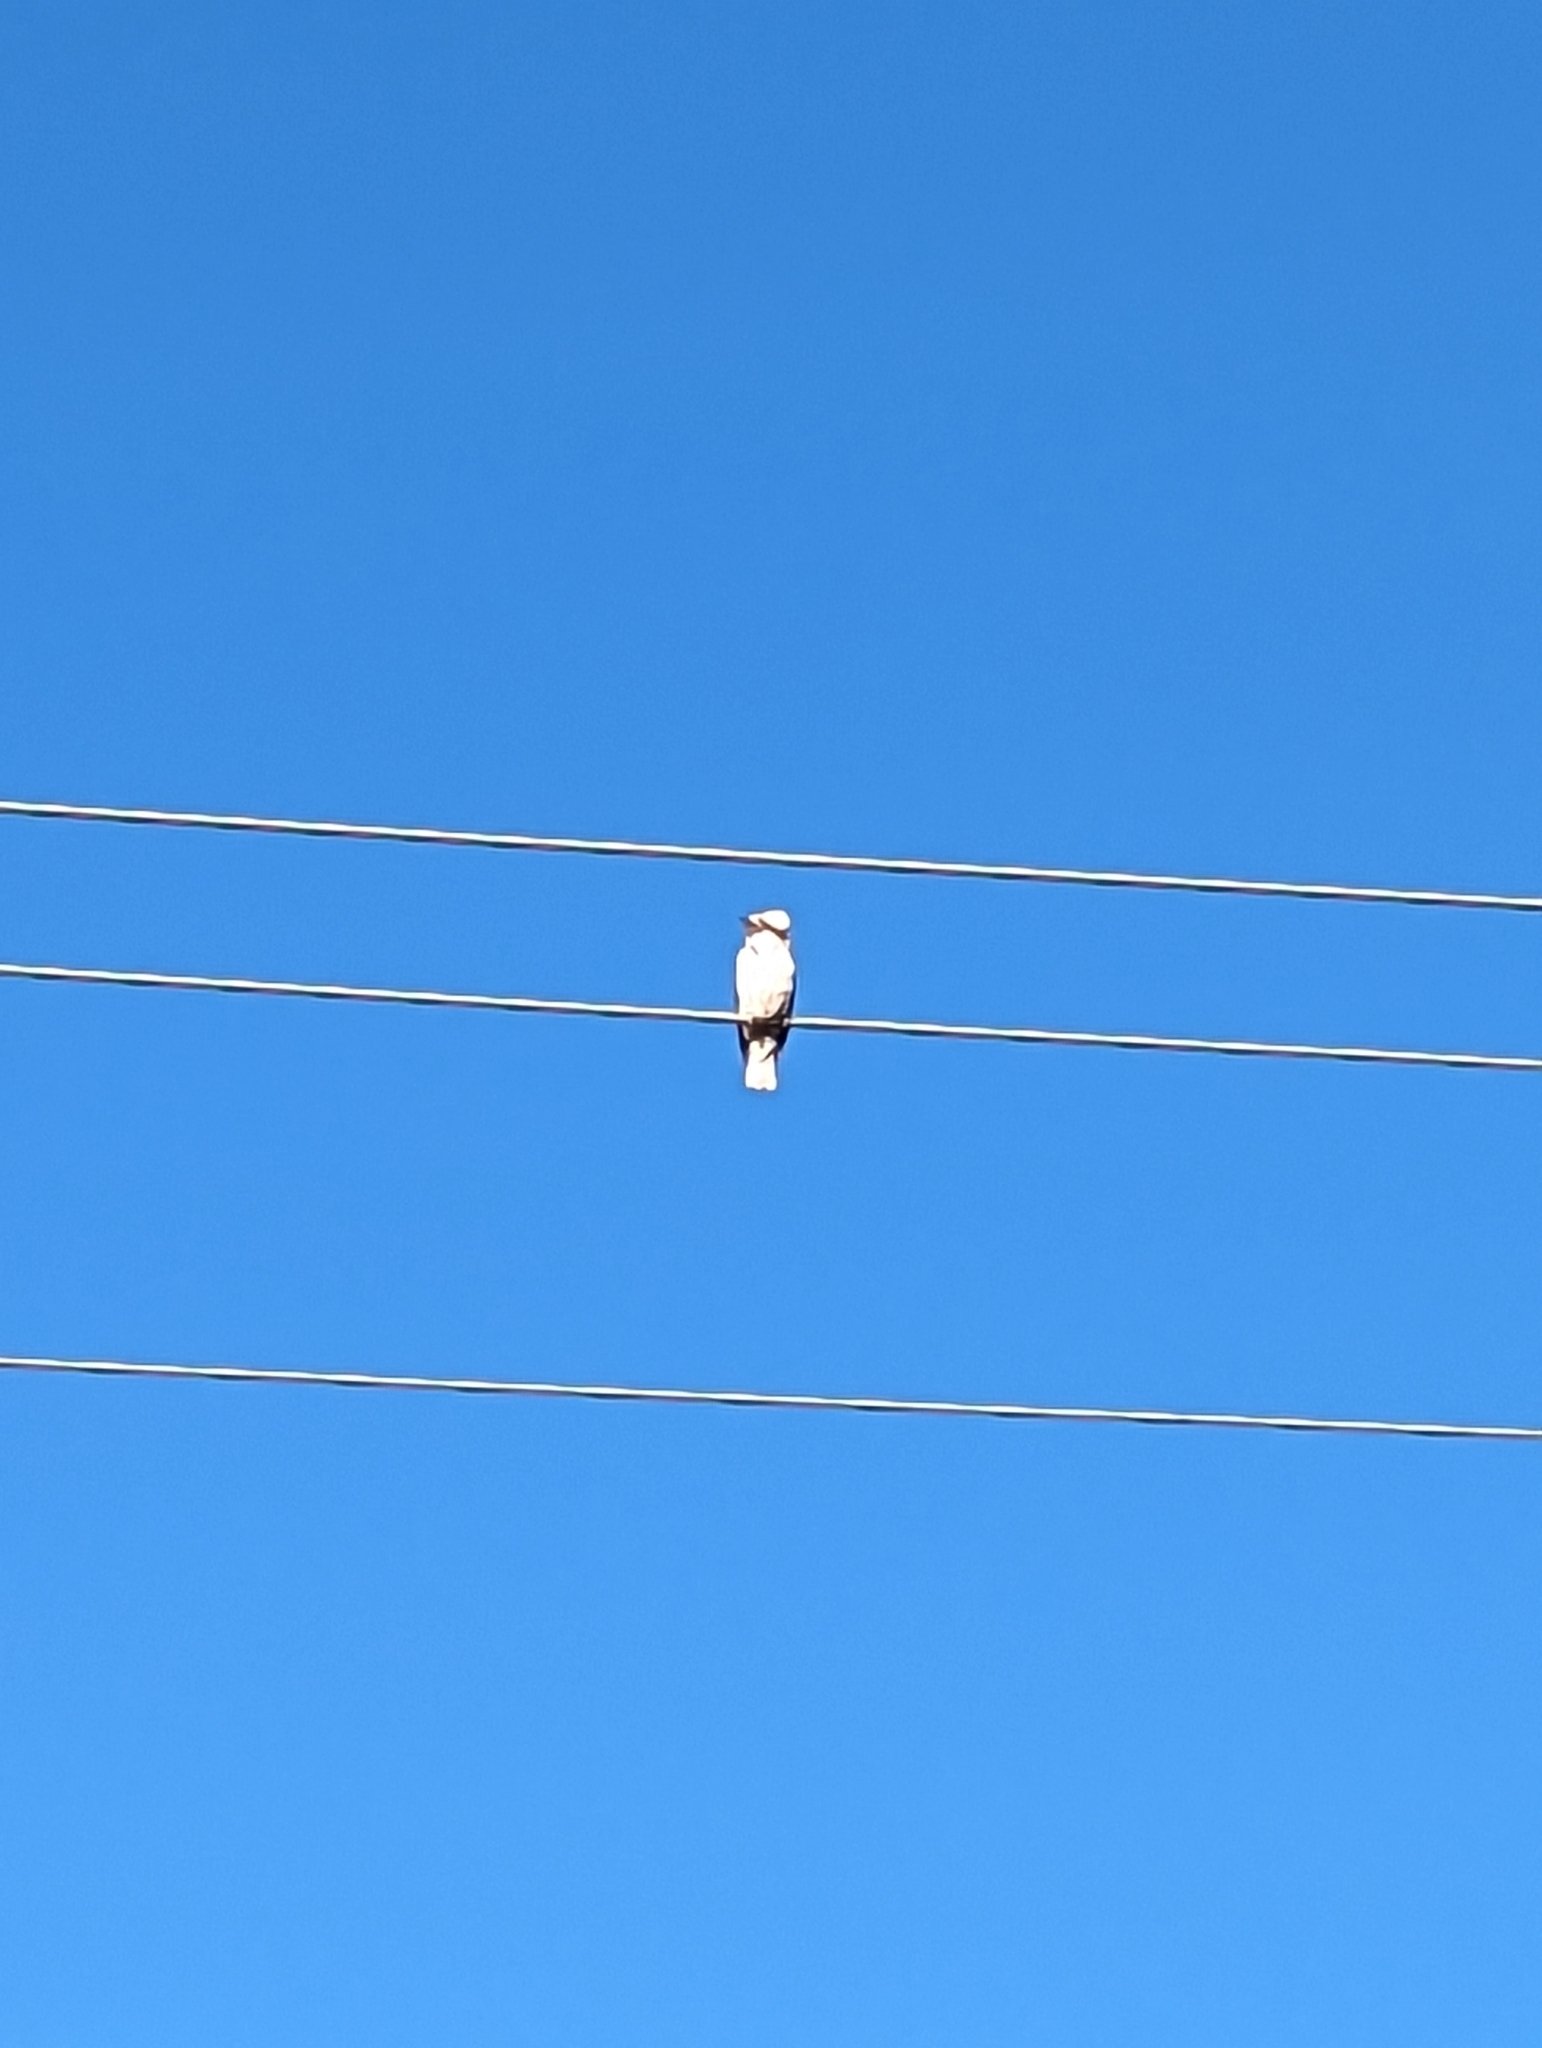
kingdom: Animalia
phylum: Chordata
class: Aves
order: Coraciiformes
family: Alcedinidae
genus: Dacelo
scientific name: Dacelo novaeguineae
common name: Laughing kookaburra
